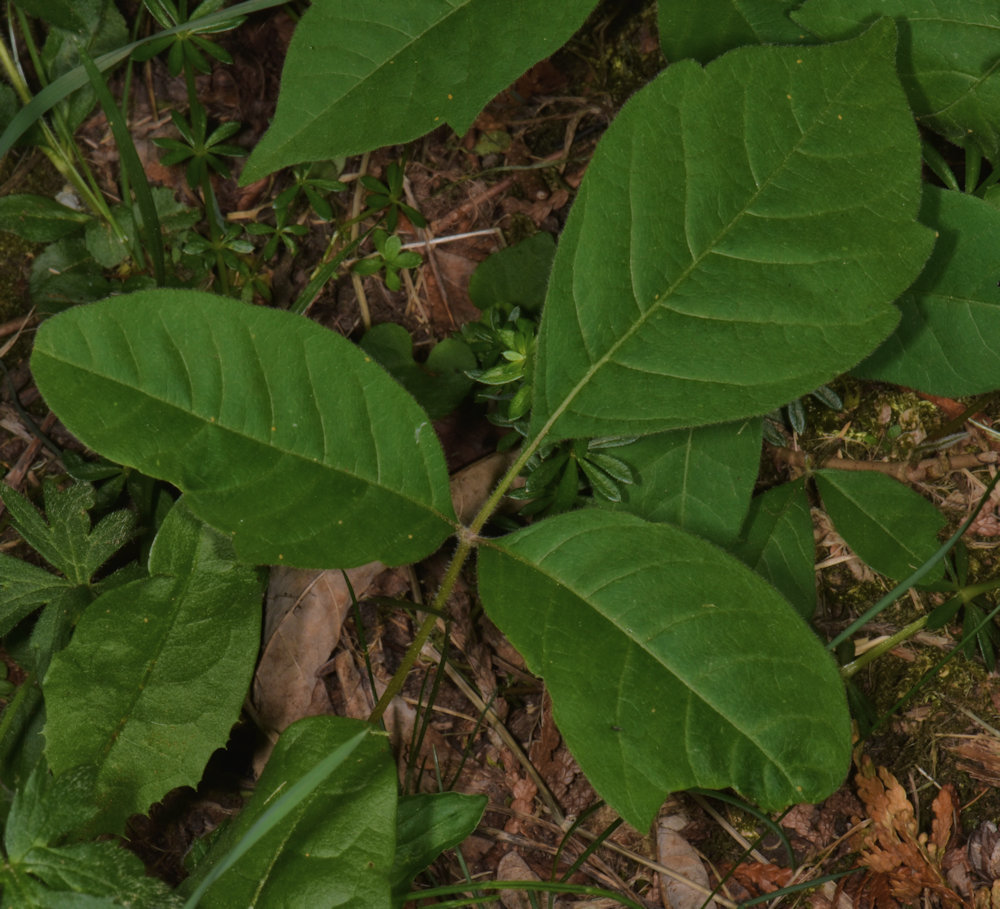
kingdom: Plantae
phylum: Tracheophyta
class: Magnoliopsida
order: Sapindales
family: Anacardiaceae
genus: Toxicodendron
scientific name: Toxicodendron radicans
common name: Poison ivy
